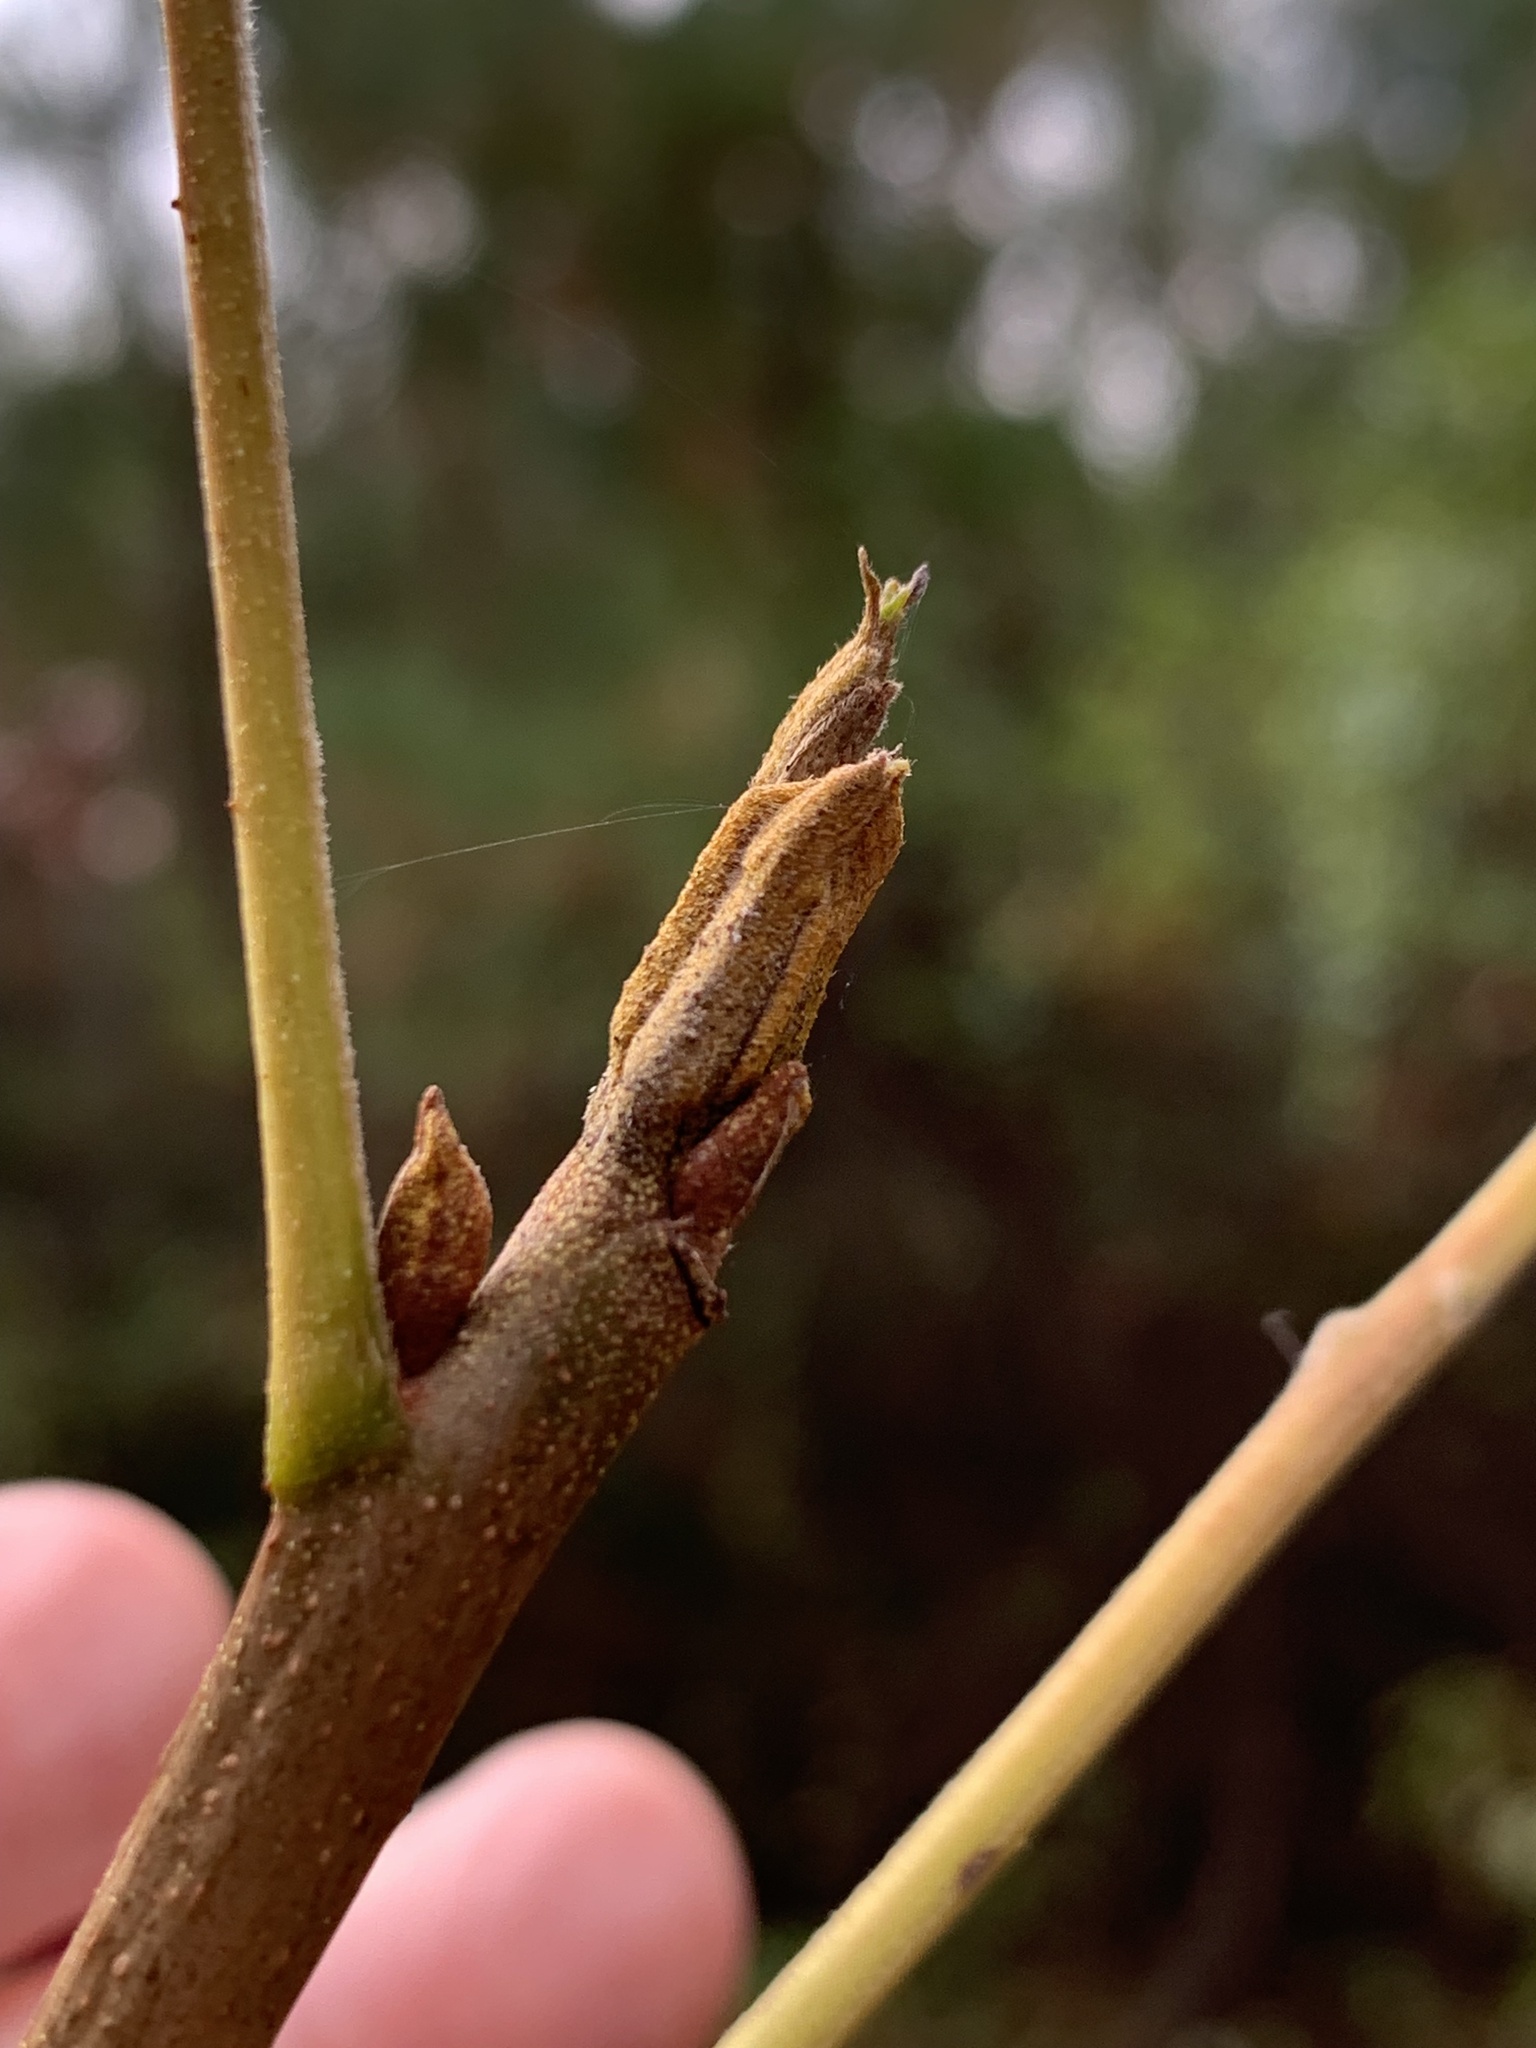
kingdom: Plantae
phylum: Tracheophyta
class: Magnoliopsida
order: Fagales
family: Juglandaceae
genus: Carya
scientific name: Carya cordiformis
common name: Bitternut hickory
